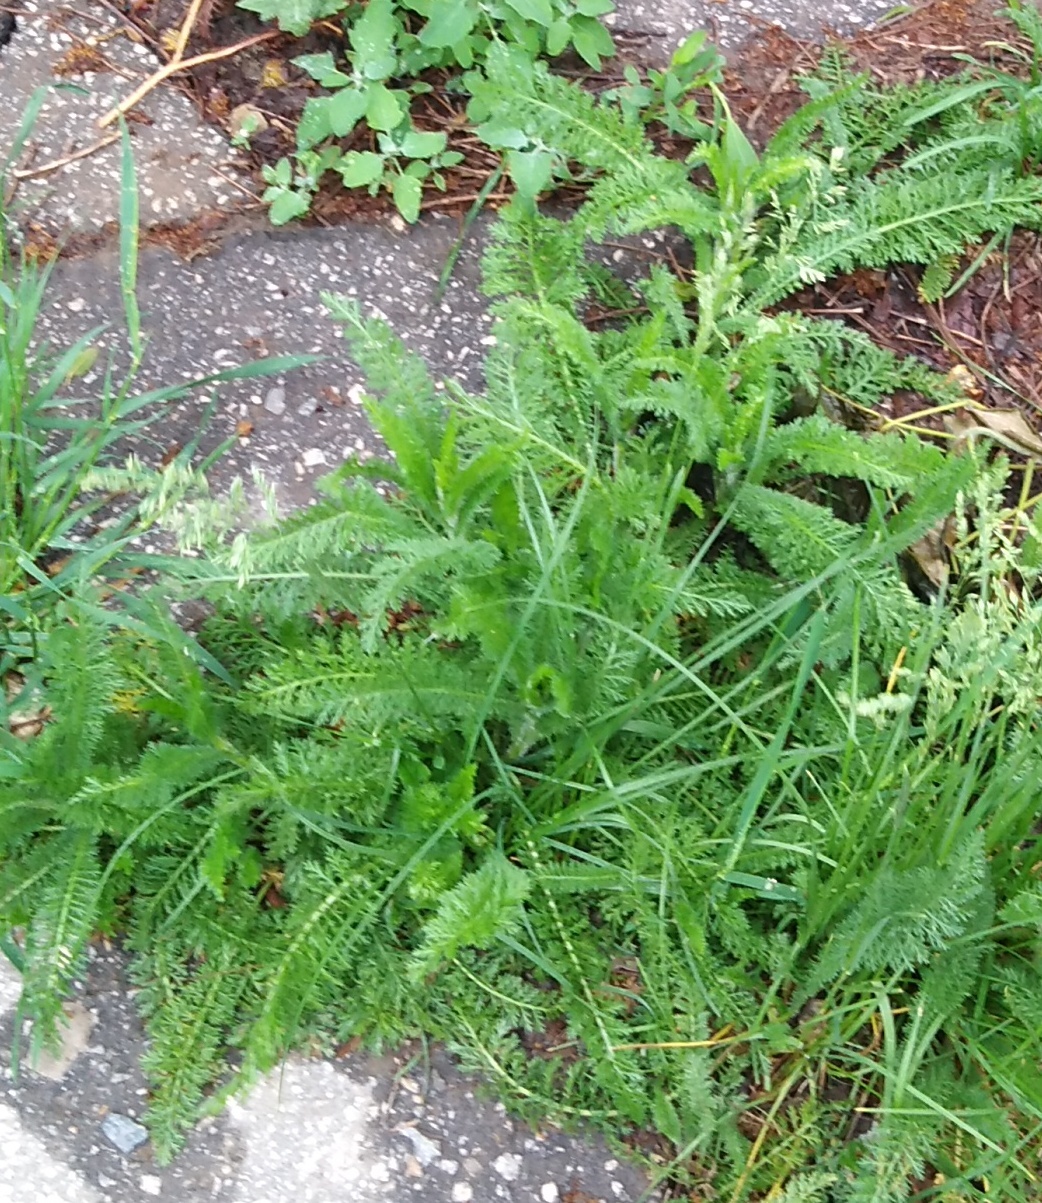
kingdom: Plantae
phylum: Tracheophyta
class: Magnoliopsida
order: Asterales
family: Asteraceae
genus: Achillea
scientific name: Achillea millefolium
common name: Yarrow
